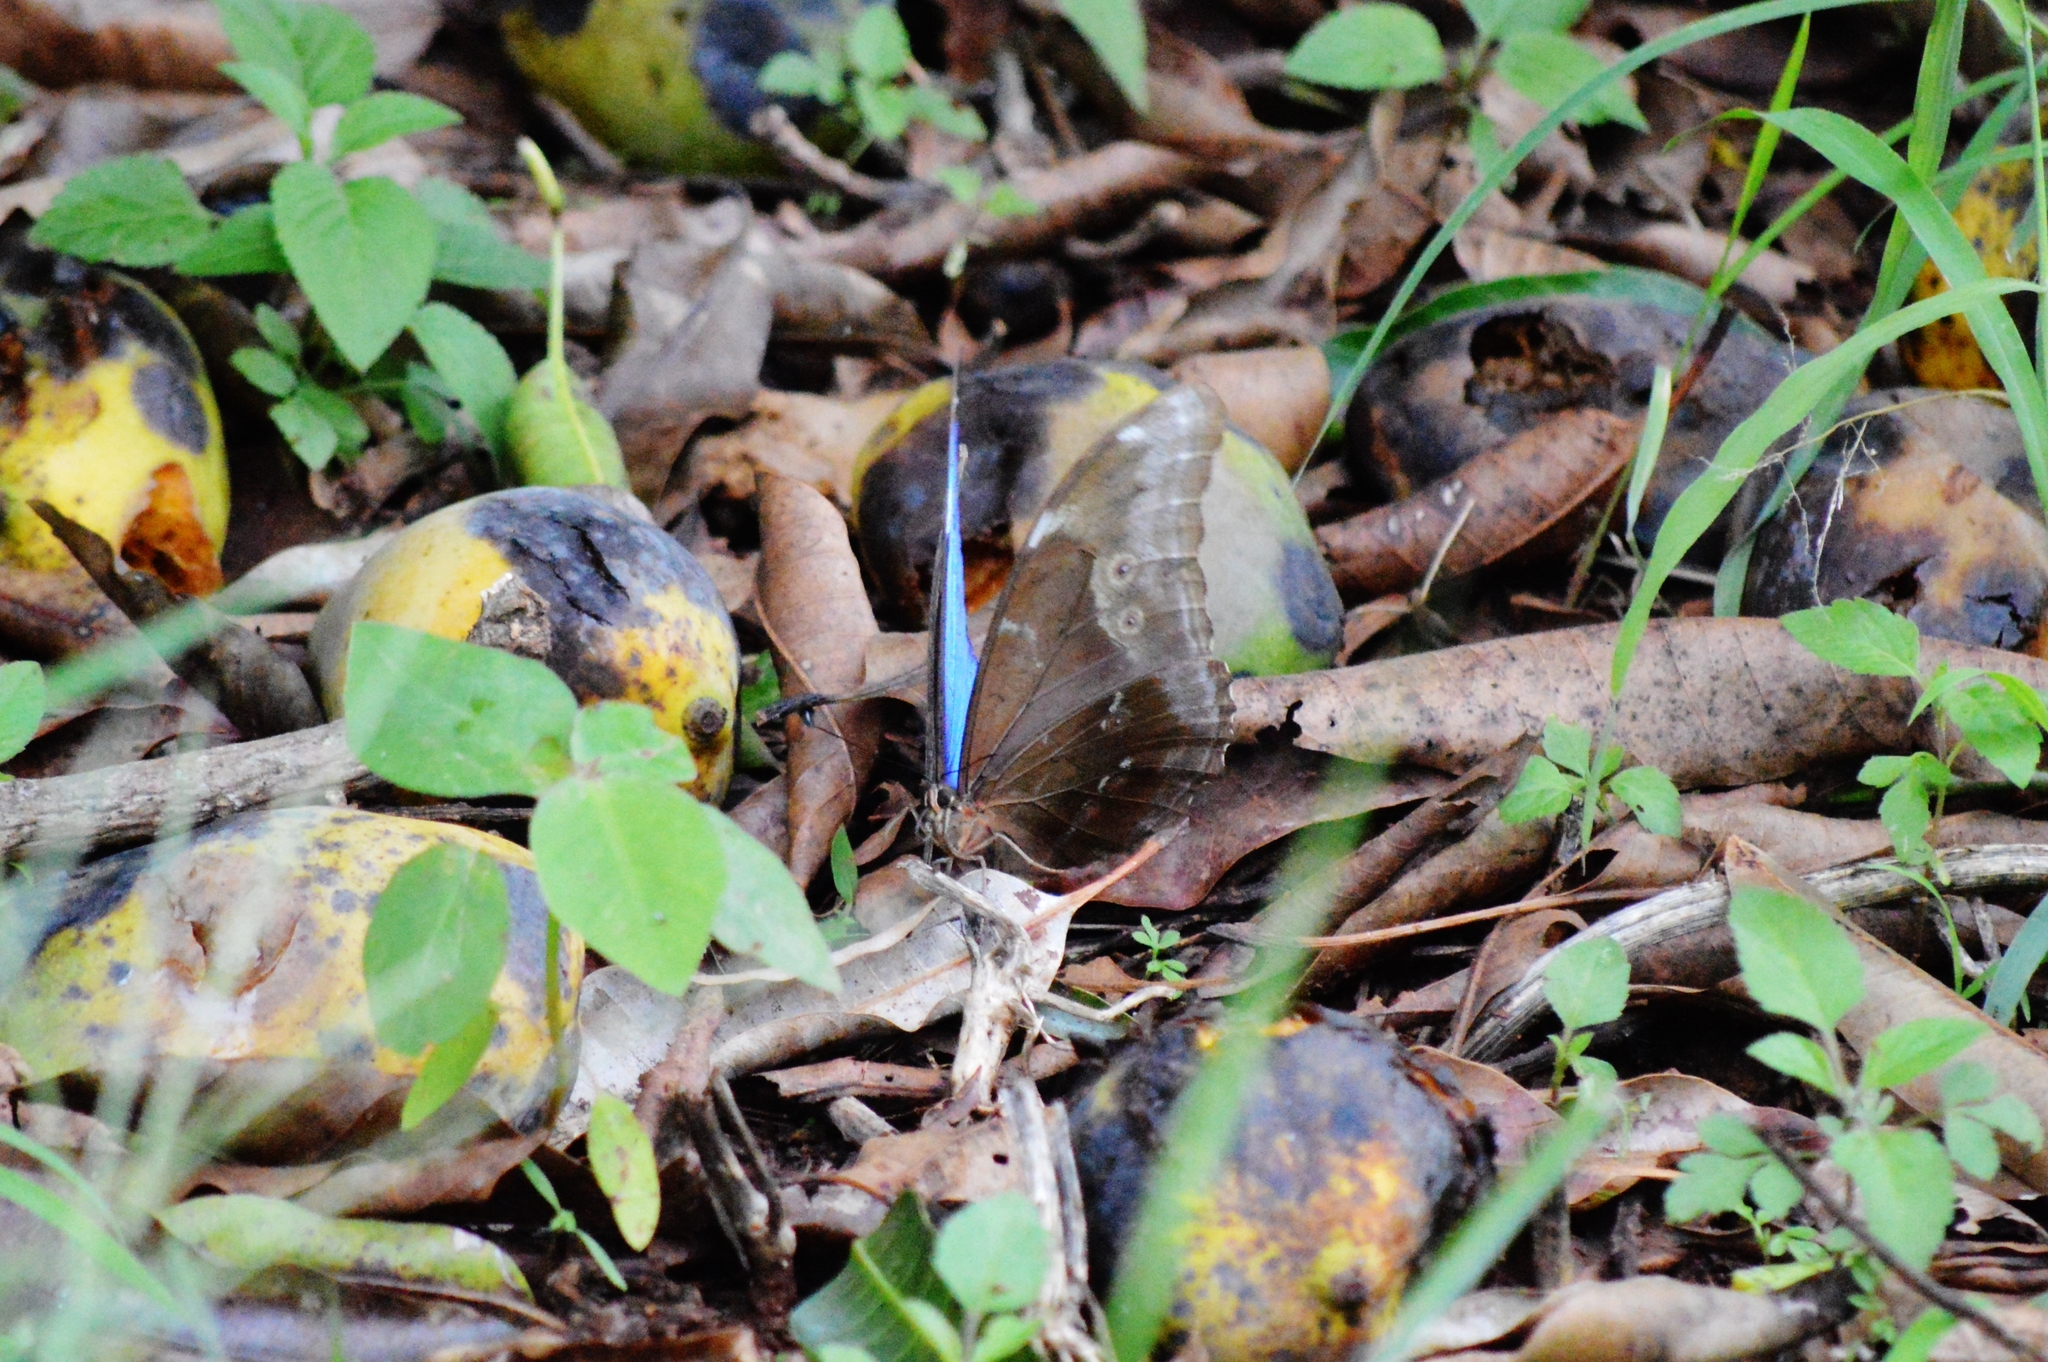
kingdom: Animalia
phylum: Arthropoda
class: Insecta
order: Lepidoptera
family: Nymphalidae
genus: Morpho
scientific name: Morpho menelaus
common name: Menelaus morpho
